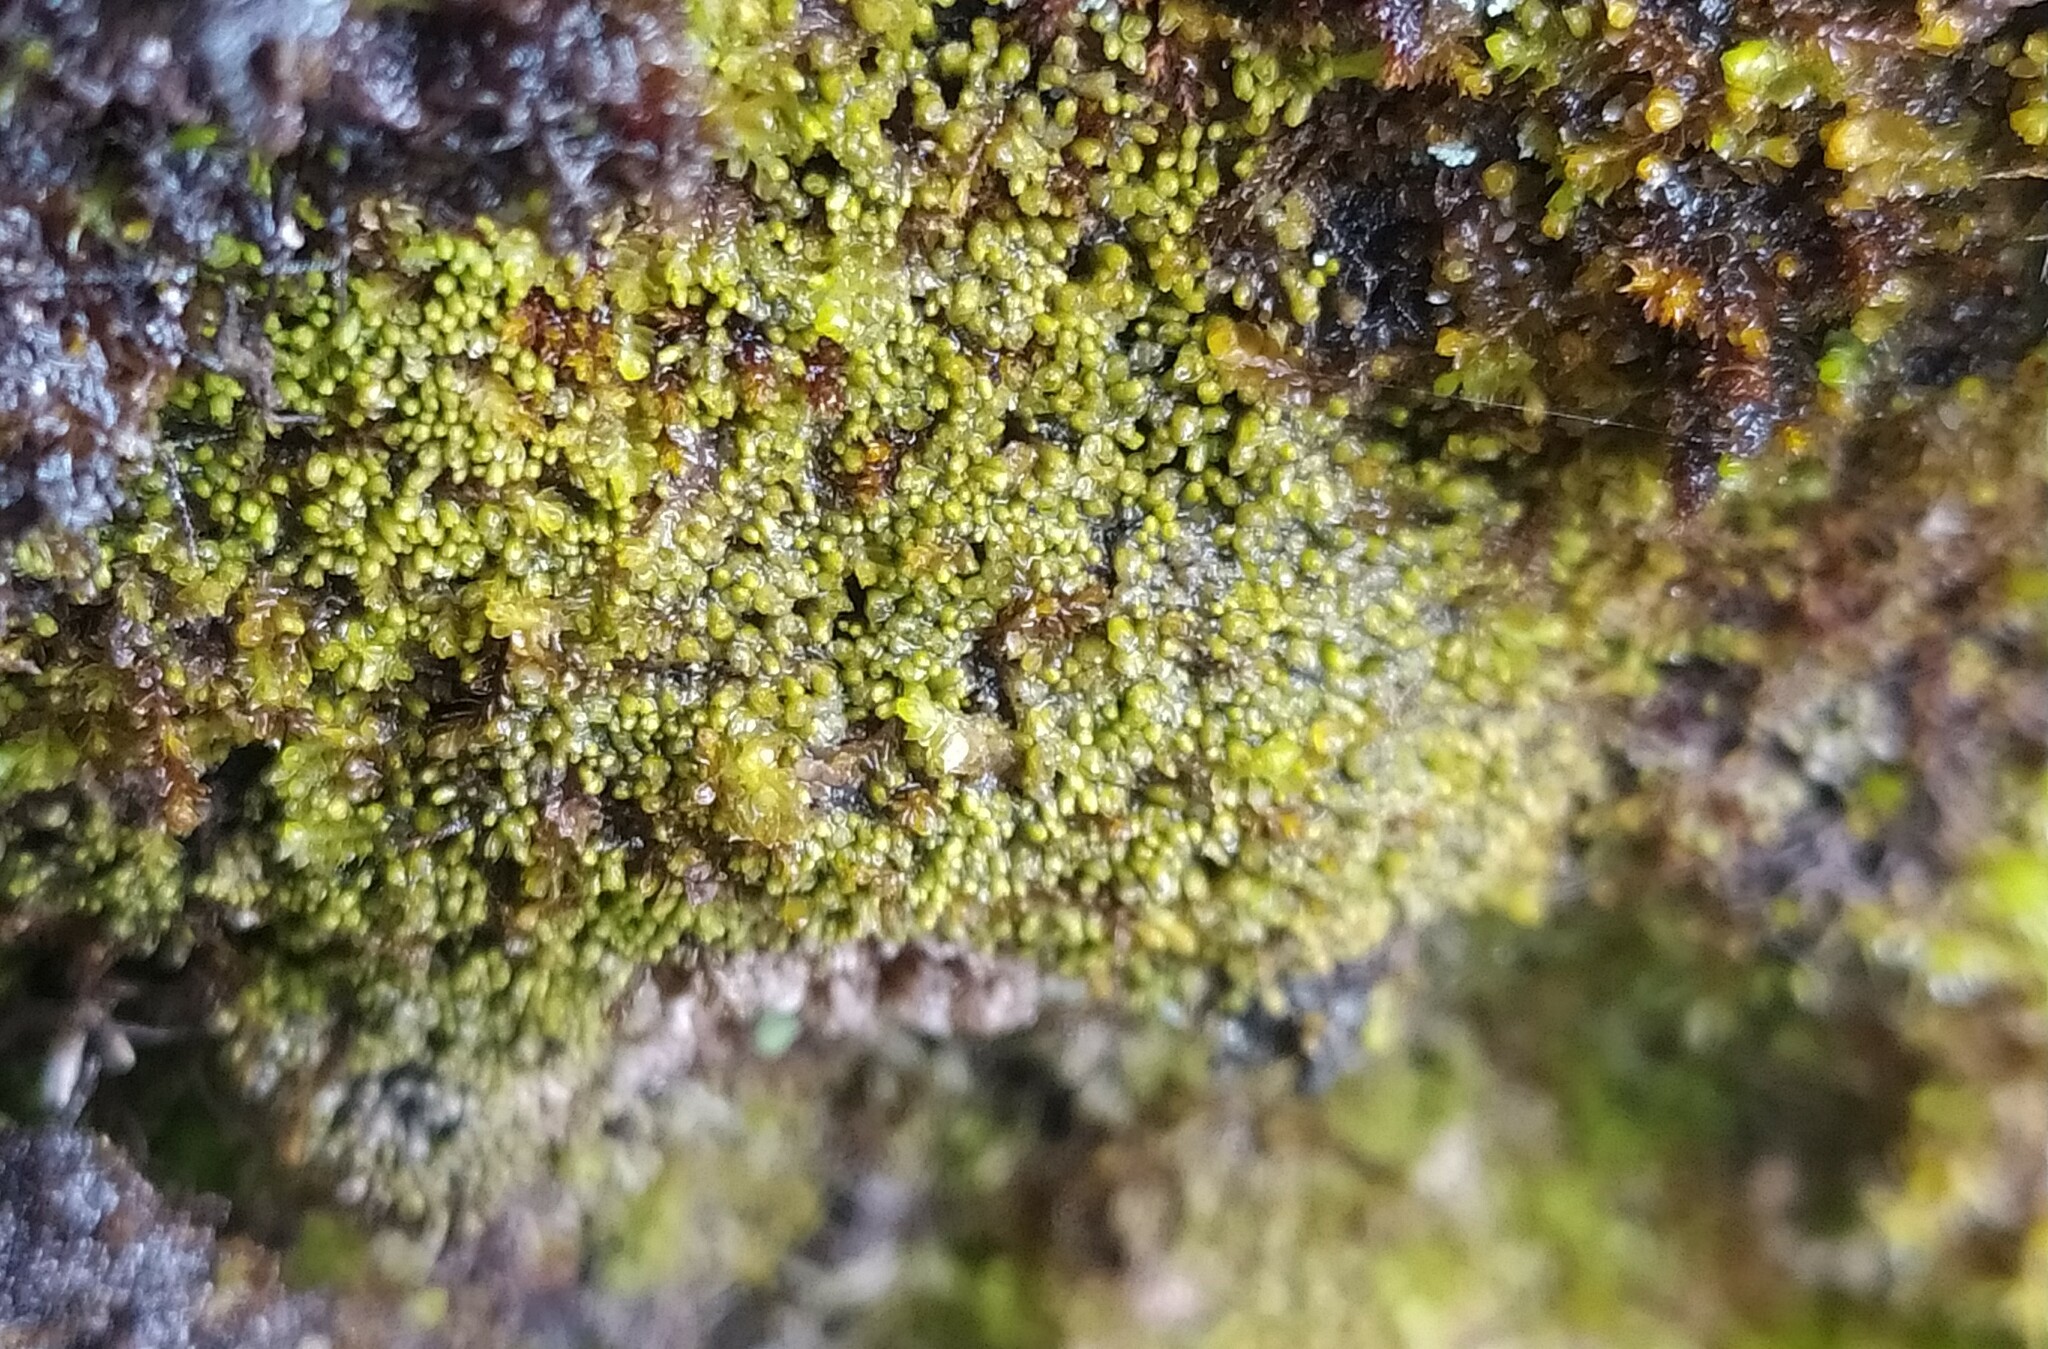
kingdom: Plantae
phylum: Marchantiophyta
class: Jungermanniopsida
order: Jungermanniales
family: Gymnomitriaceae
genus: Gymnomitrion
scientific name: Gymnomitrion concinnatum
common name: Braided frostwort
